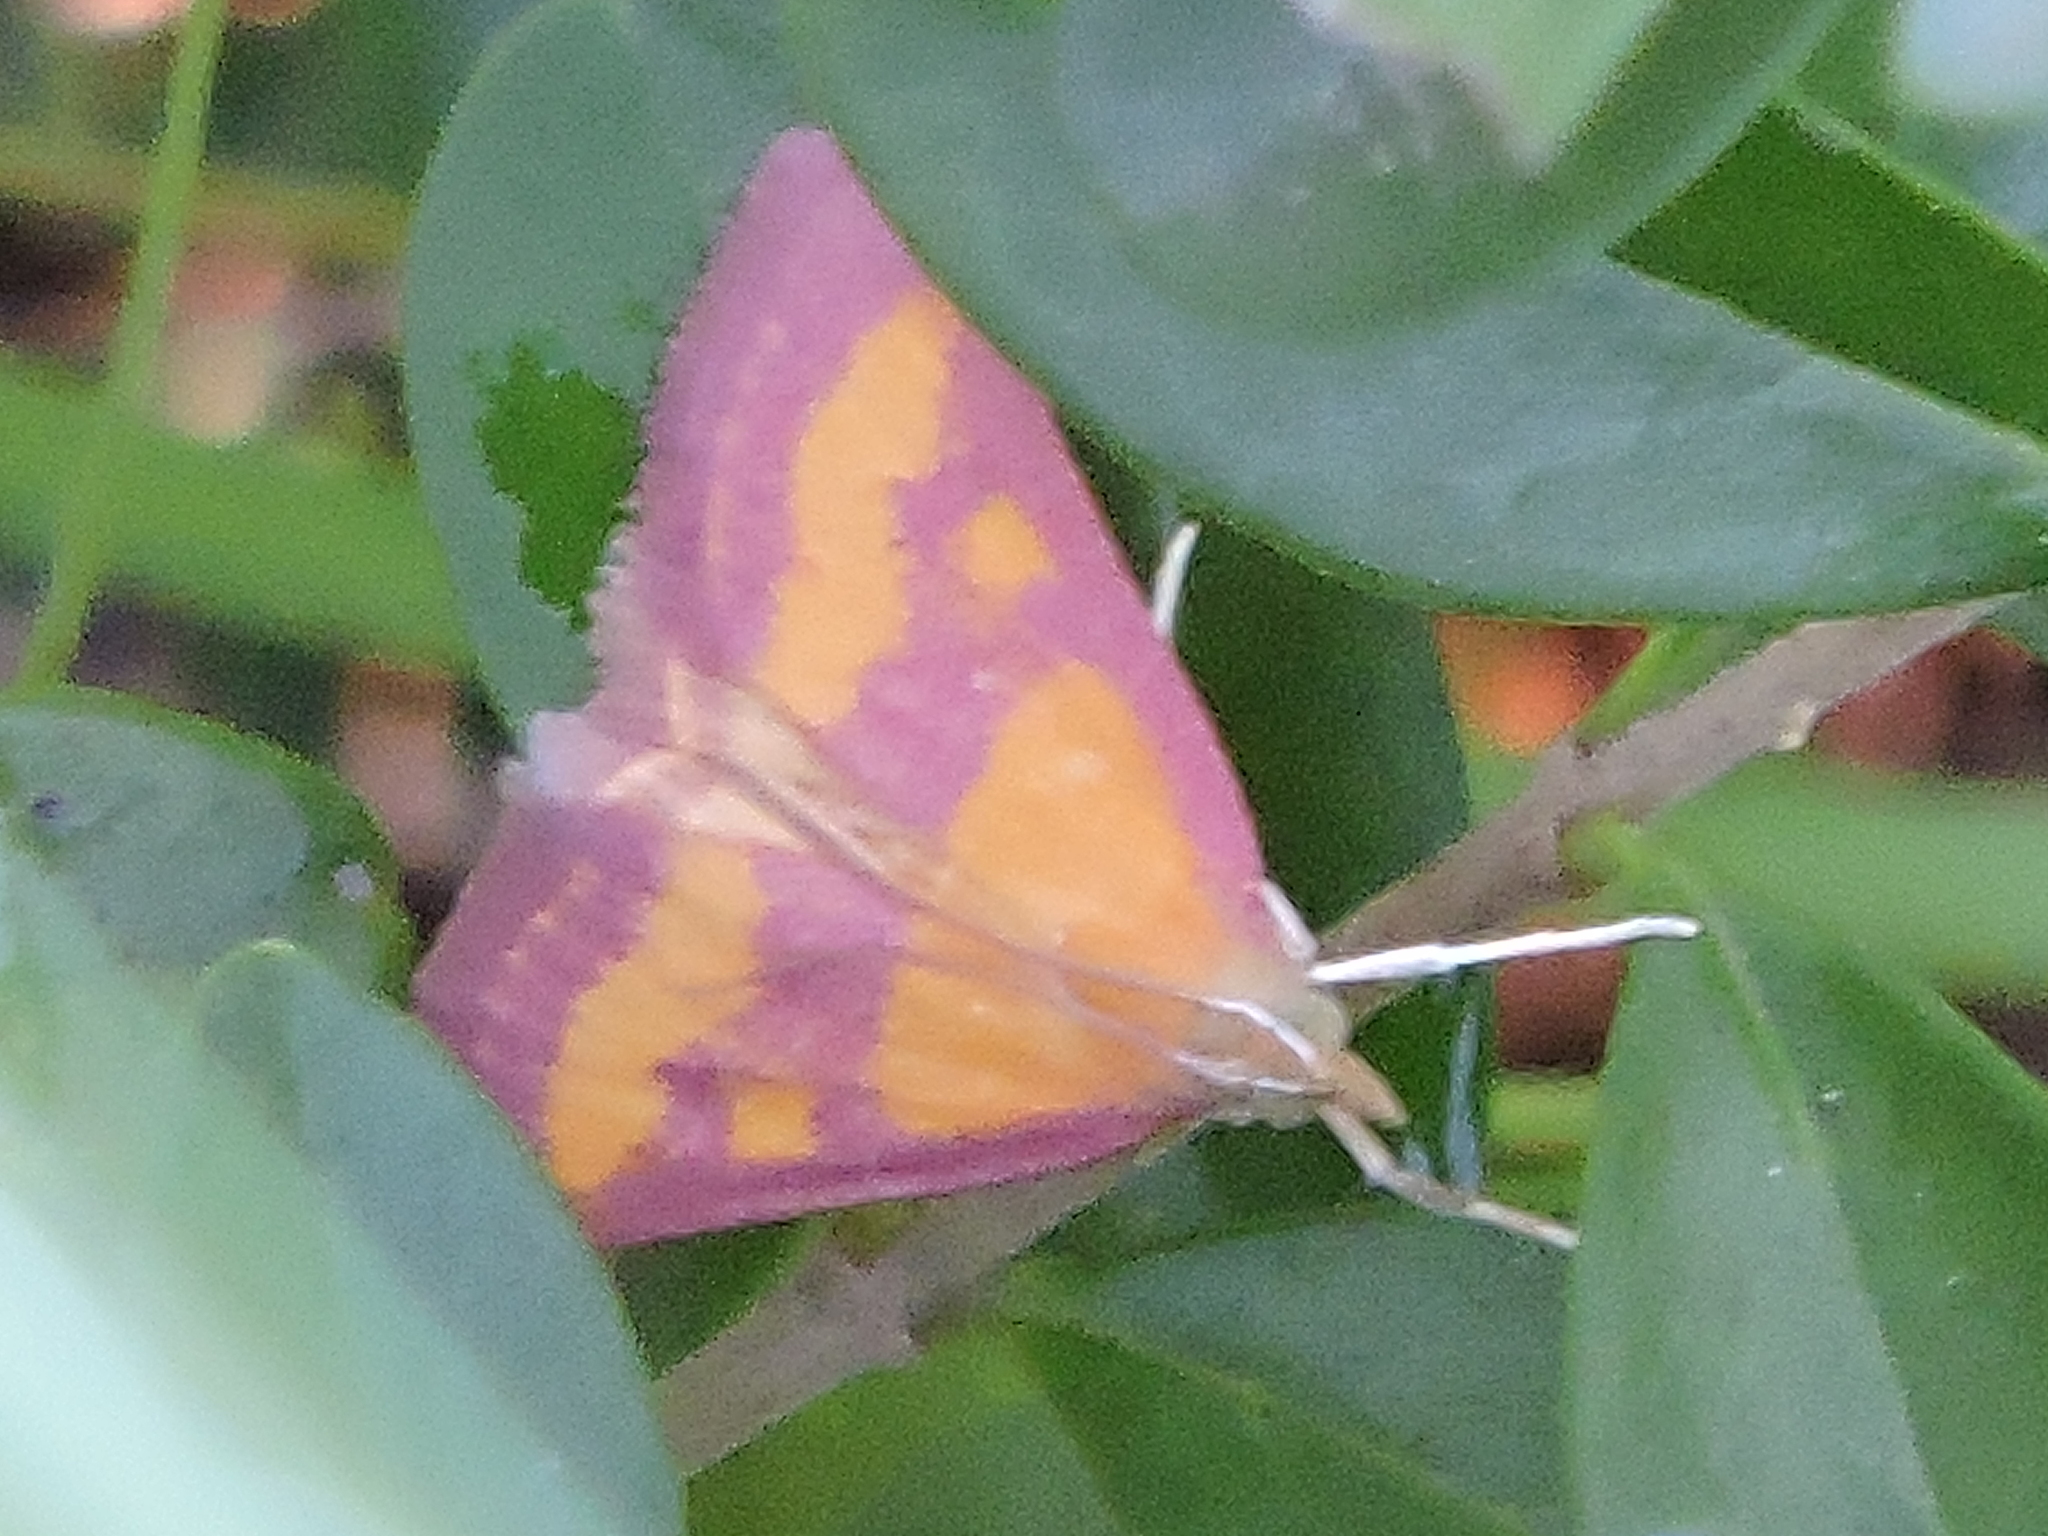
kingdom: Animalia
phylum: Arthropoda
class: Insecta
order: Lepidoptera
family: Crambidae
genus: Pyrausta
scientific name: Pyrausta laticlavia
